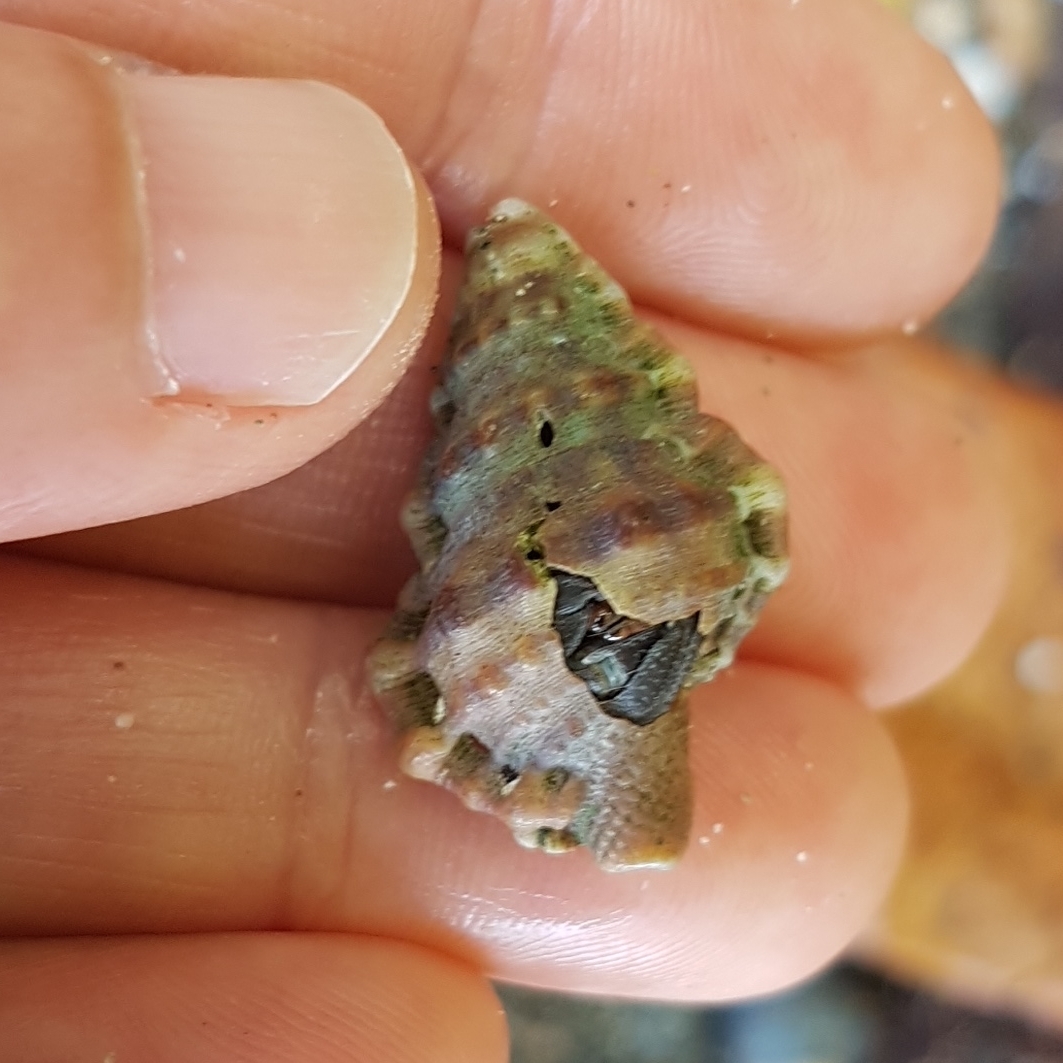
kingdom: Animalia
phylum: Mollusca
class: Gastropoda
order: Littorinimorpha
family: Bursidae
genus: Alanbeuella
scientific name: Alanbeuella corrugata
